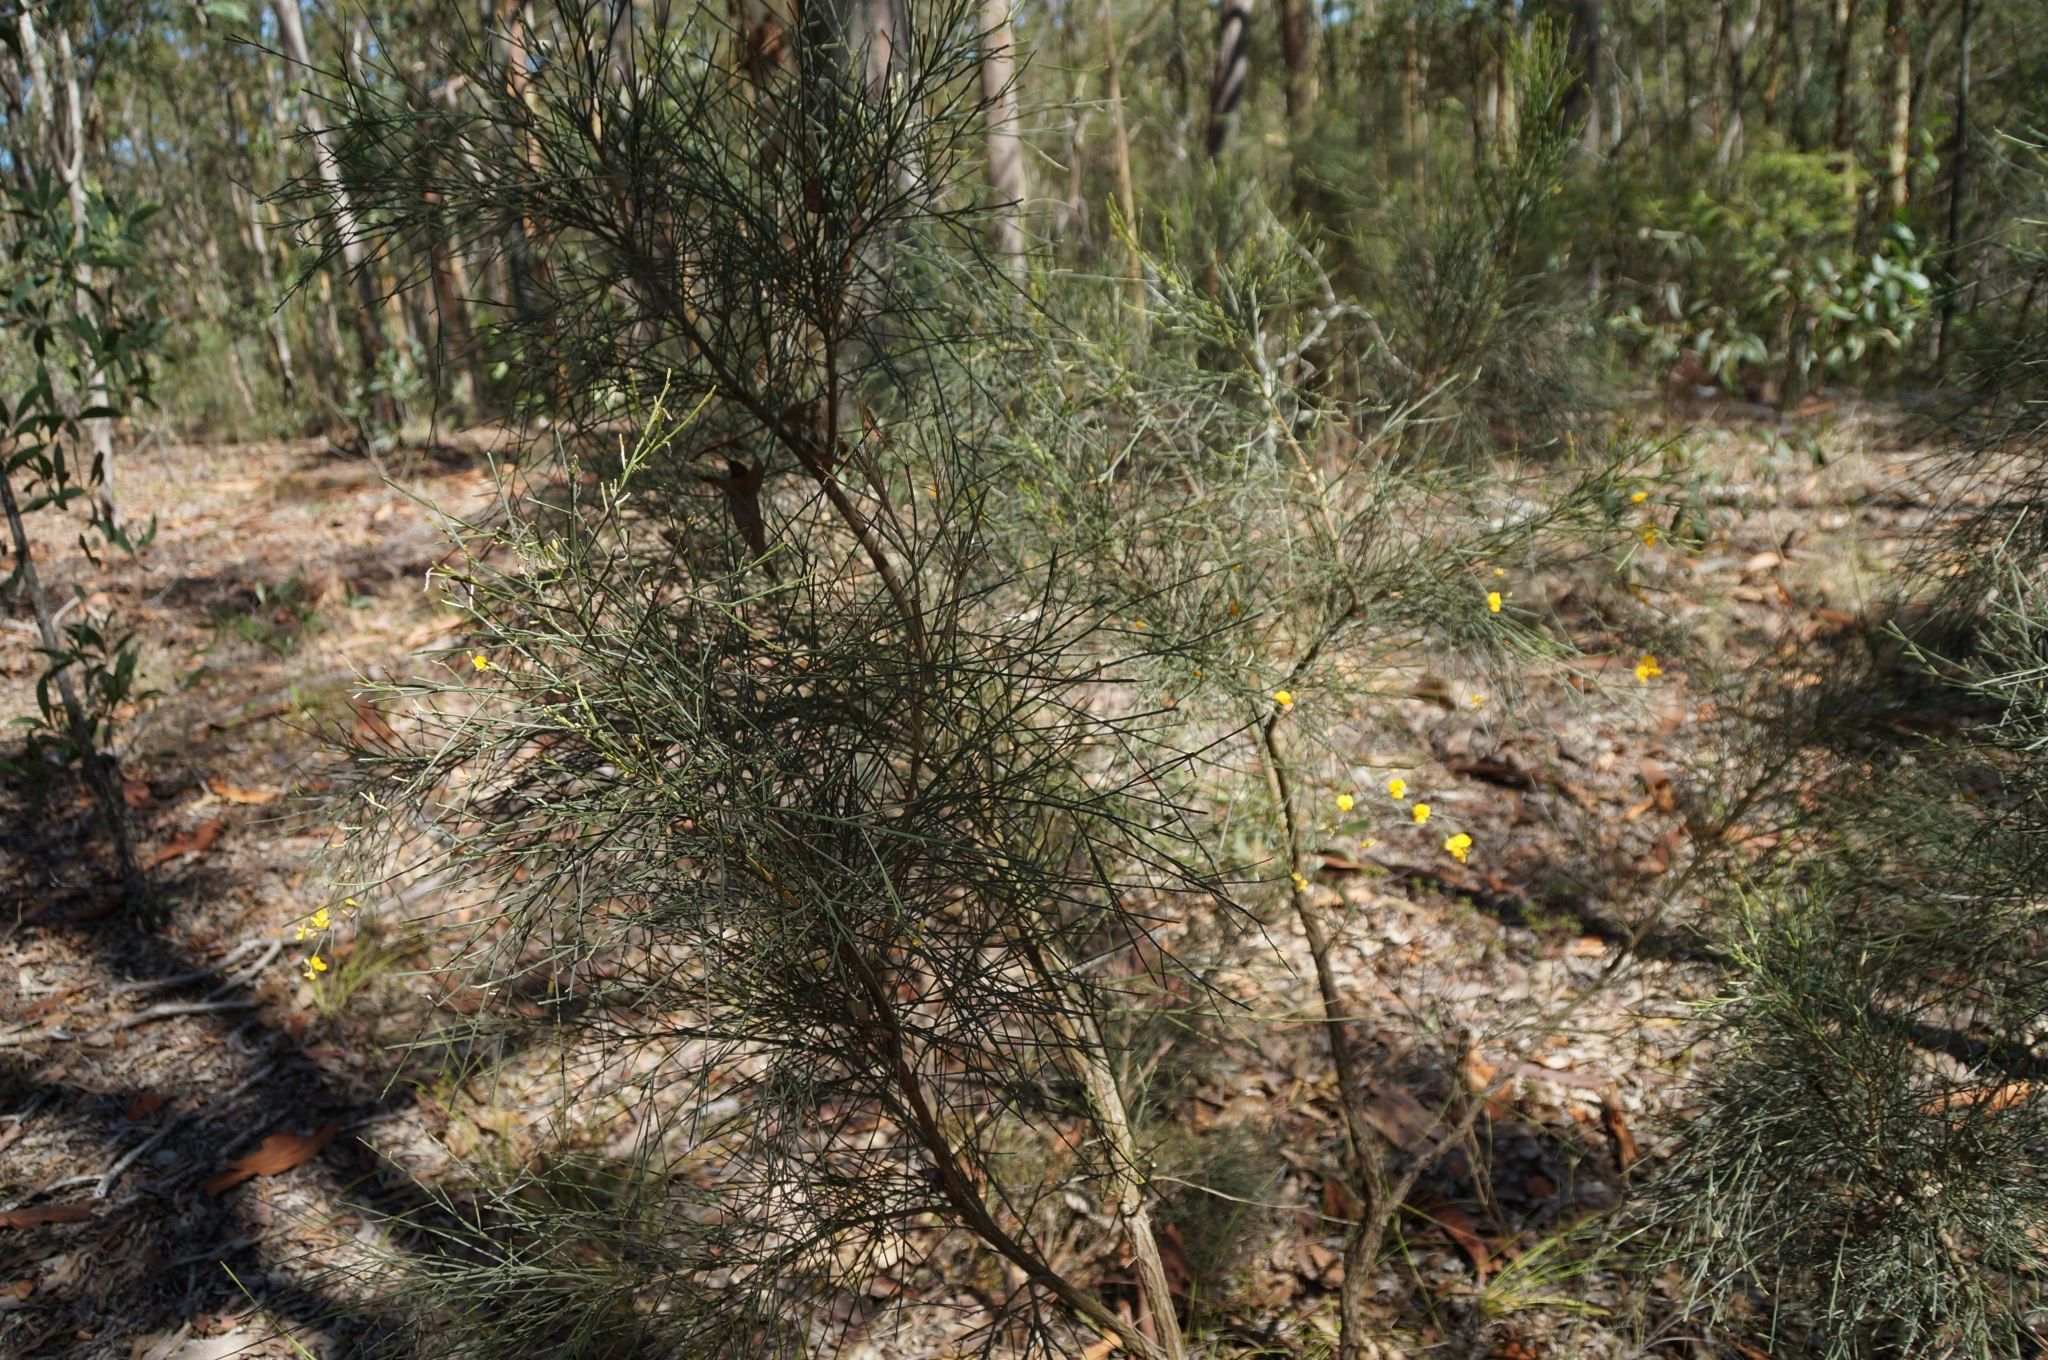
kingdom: Plantae
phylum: Tracheophyta
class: Magnoliopsida
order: Fabales
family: Fabaceae
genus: Jacksonia
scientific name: Jacksonia scoparia
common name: Dogwood
